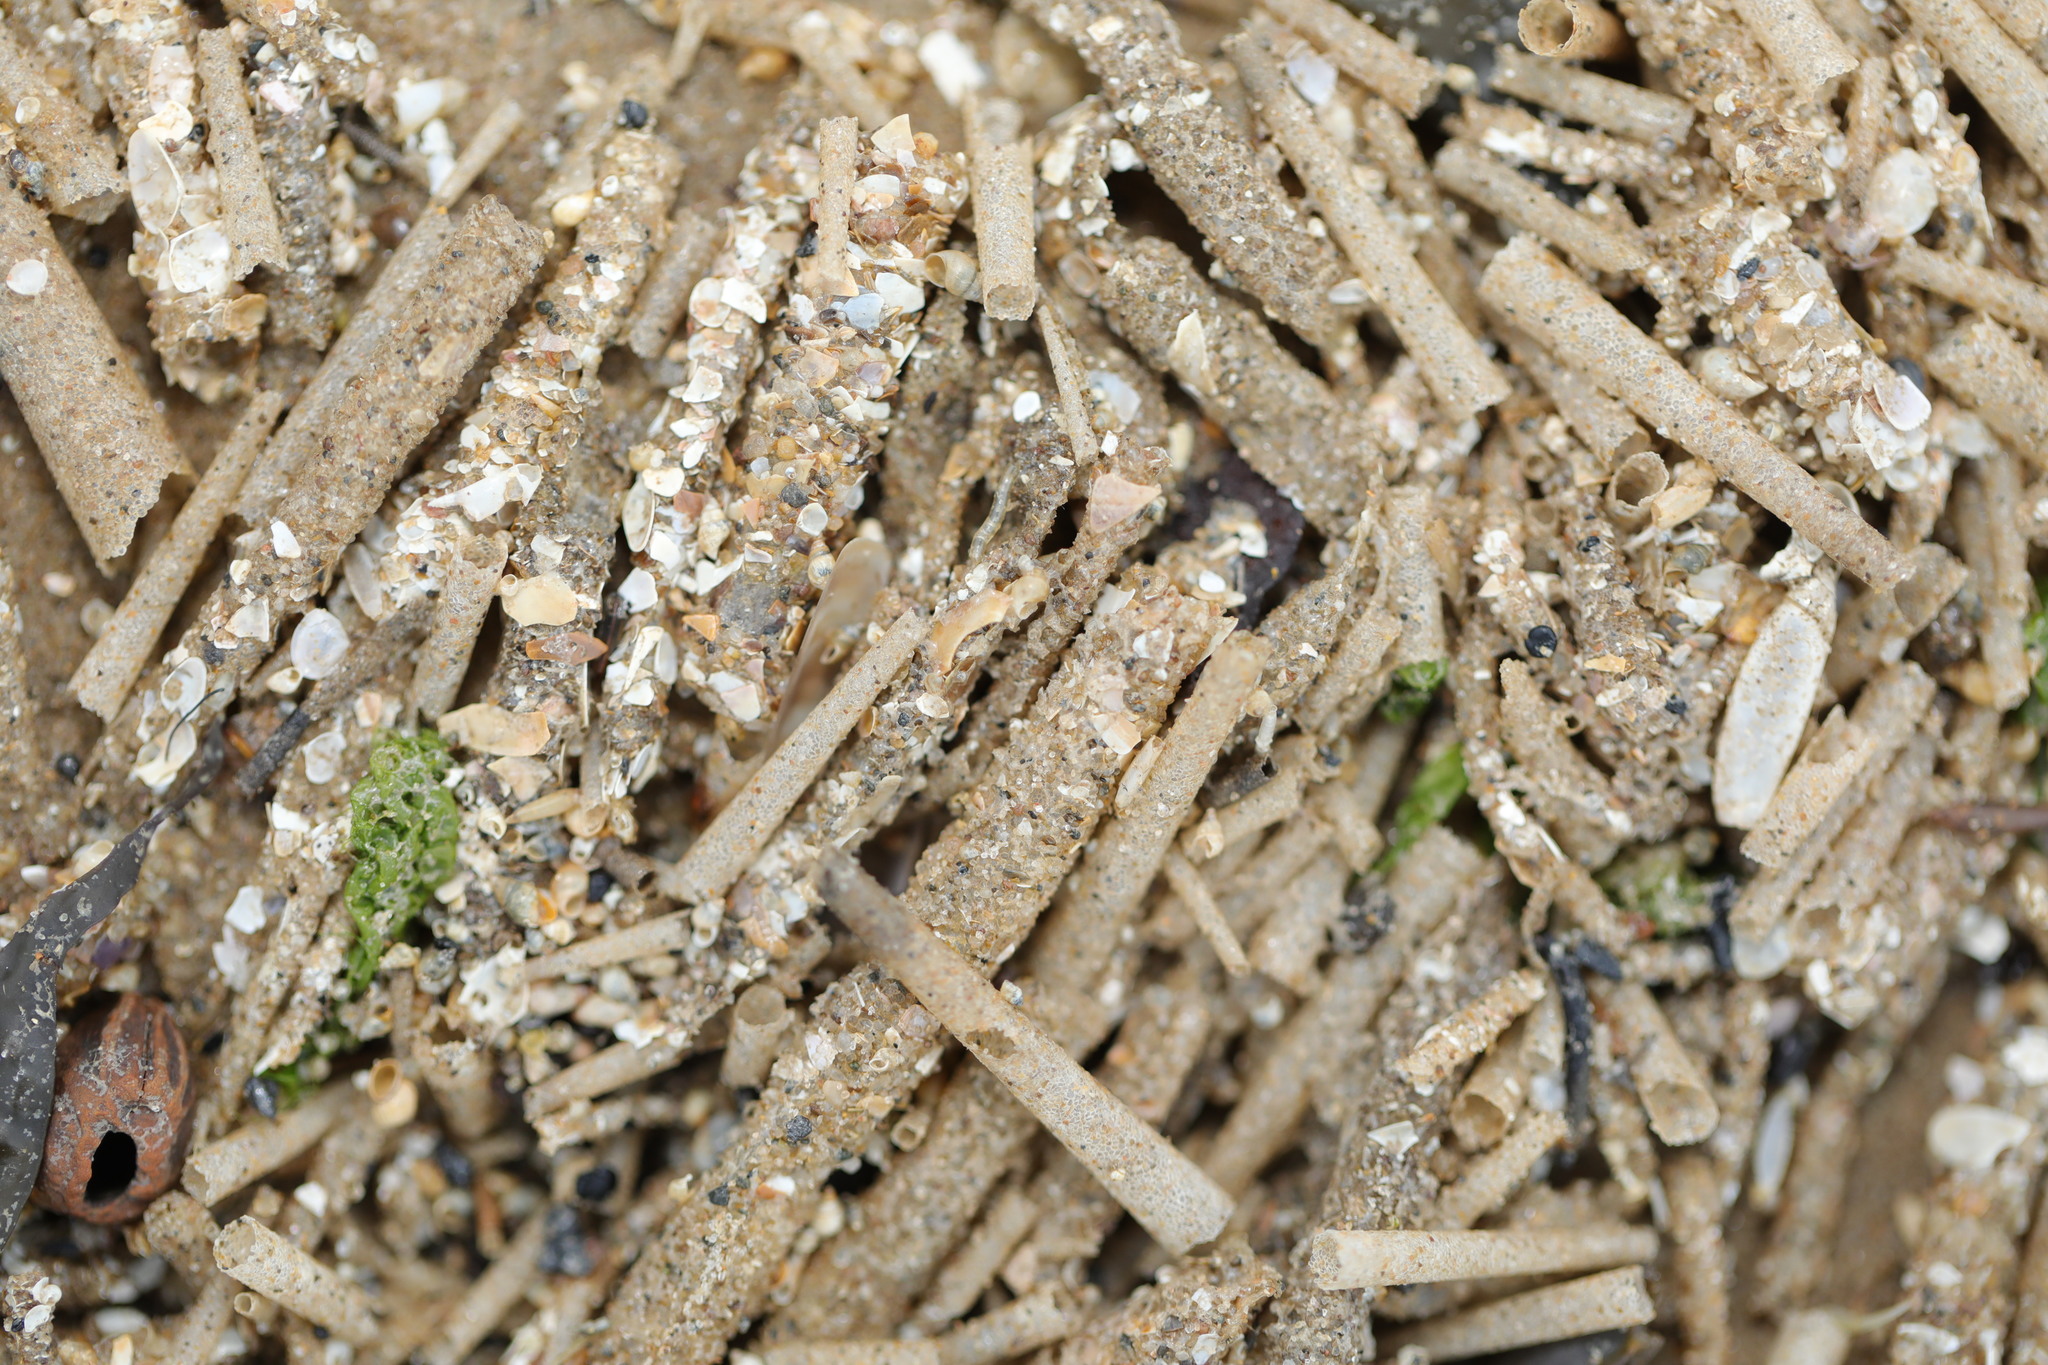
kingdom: Animalia
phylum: Annelida
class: Polychaeta
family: Terebellidae
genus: Lanice
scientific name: Lanice conchilega
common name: Sand mason
